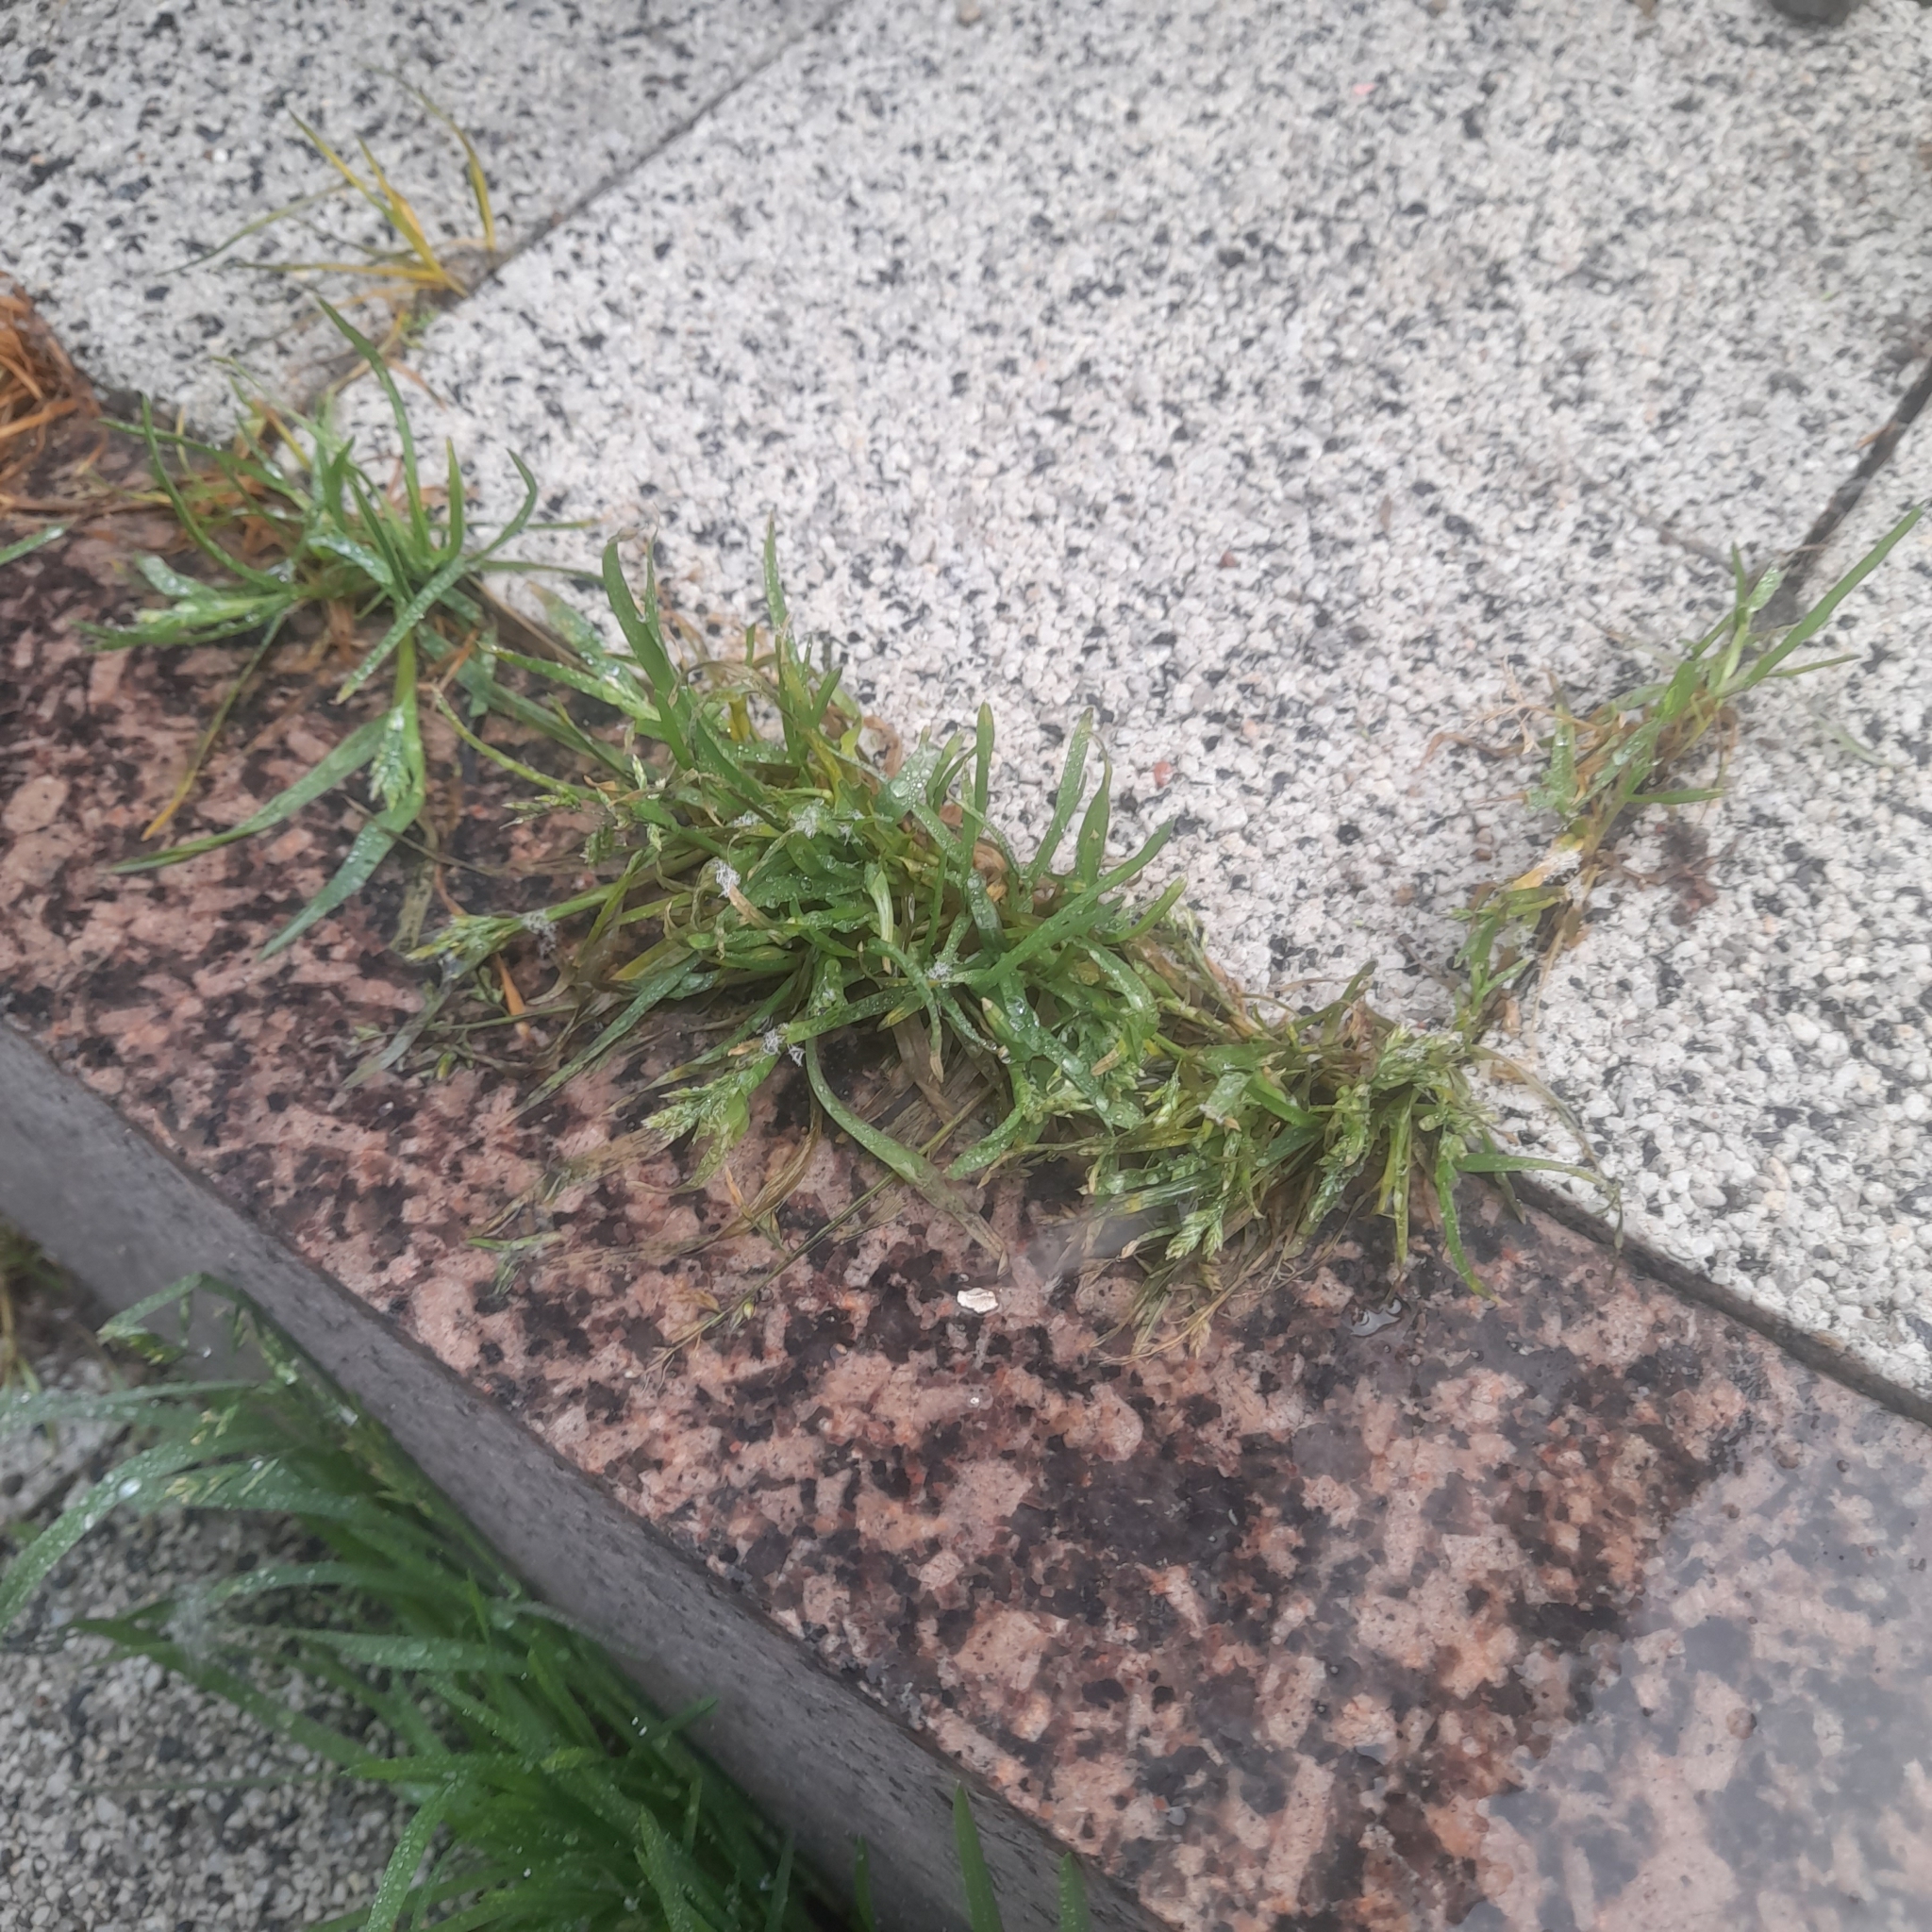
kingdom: Plantae
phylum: Tracheophyta
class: Liliopsida
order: Poales
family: Poaceae
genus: Poa
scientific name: Poa annua
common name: Annual bluegrass
